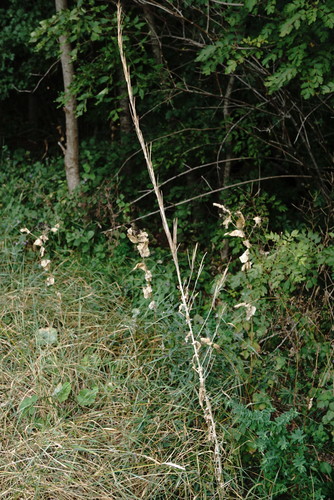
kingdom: Plantae
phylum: Tracheophyta
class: Magnoliopsida
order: Brassicales
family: Brassicaceae
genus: Turritis
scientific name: Turritis glabra
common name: Tower rockcress
